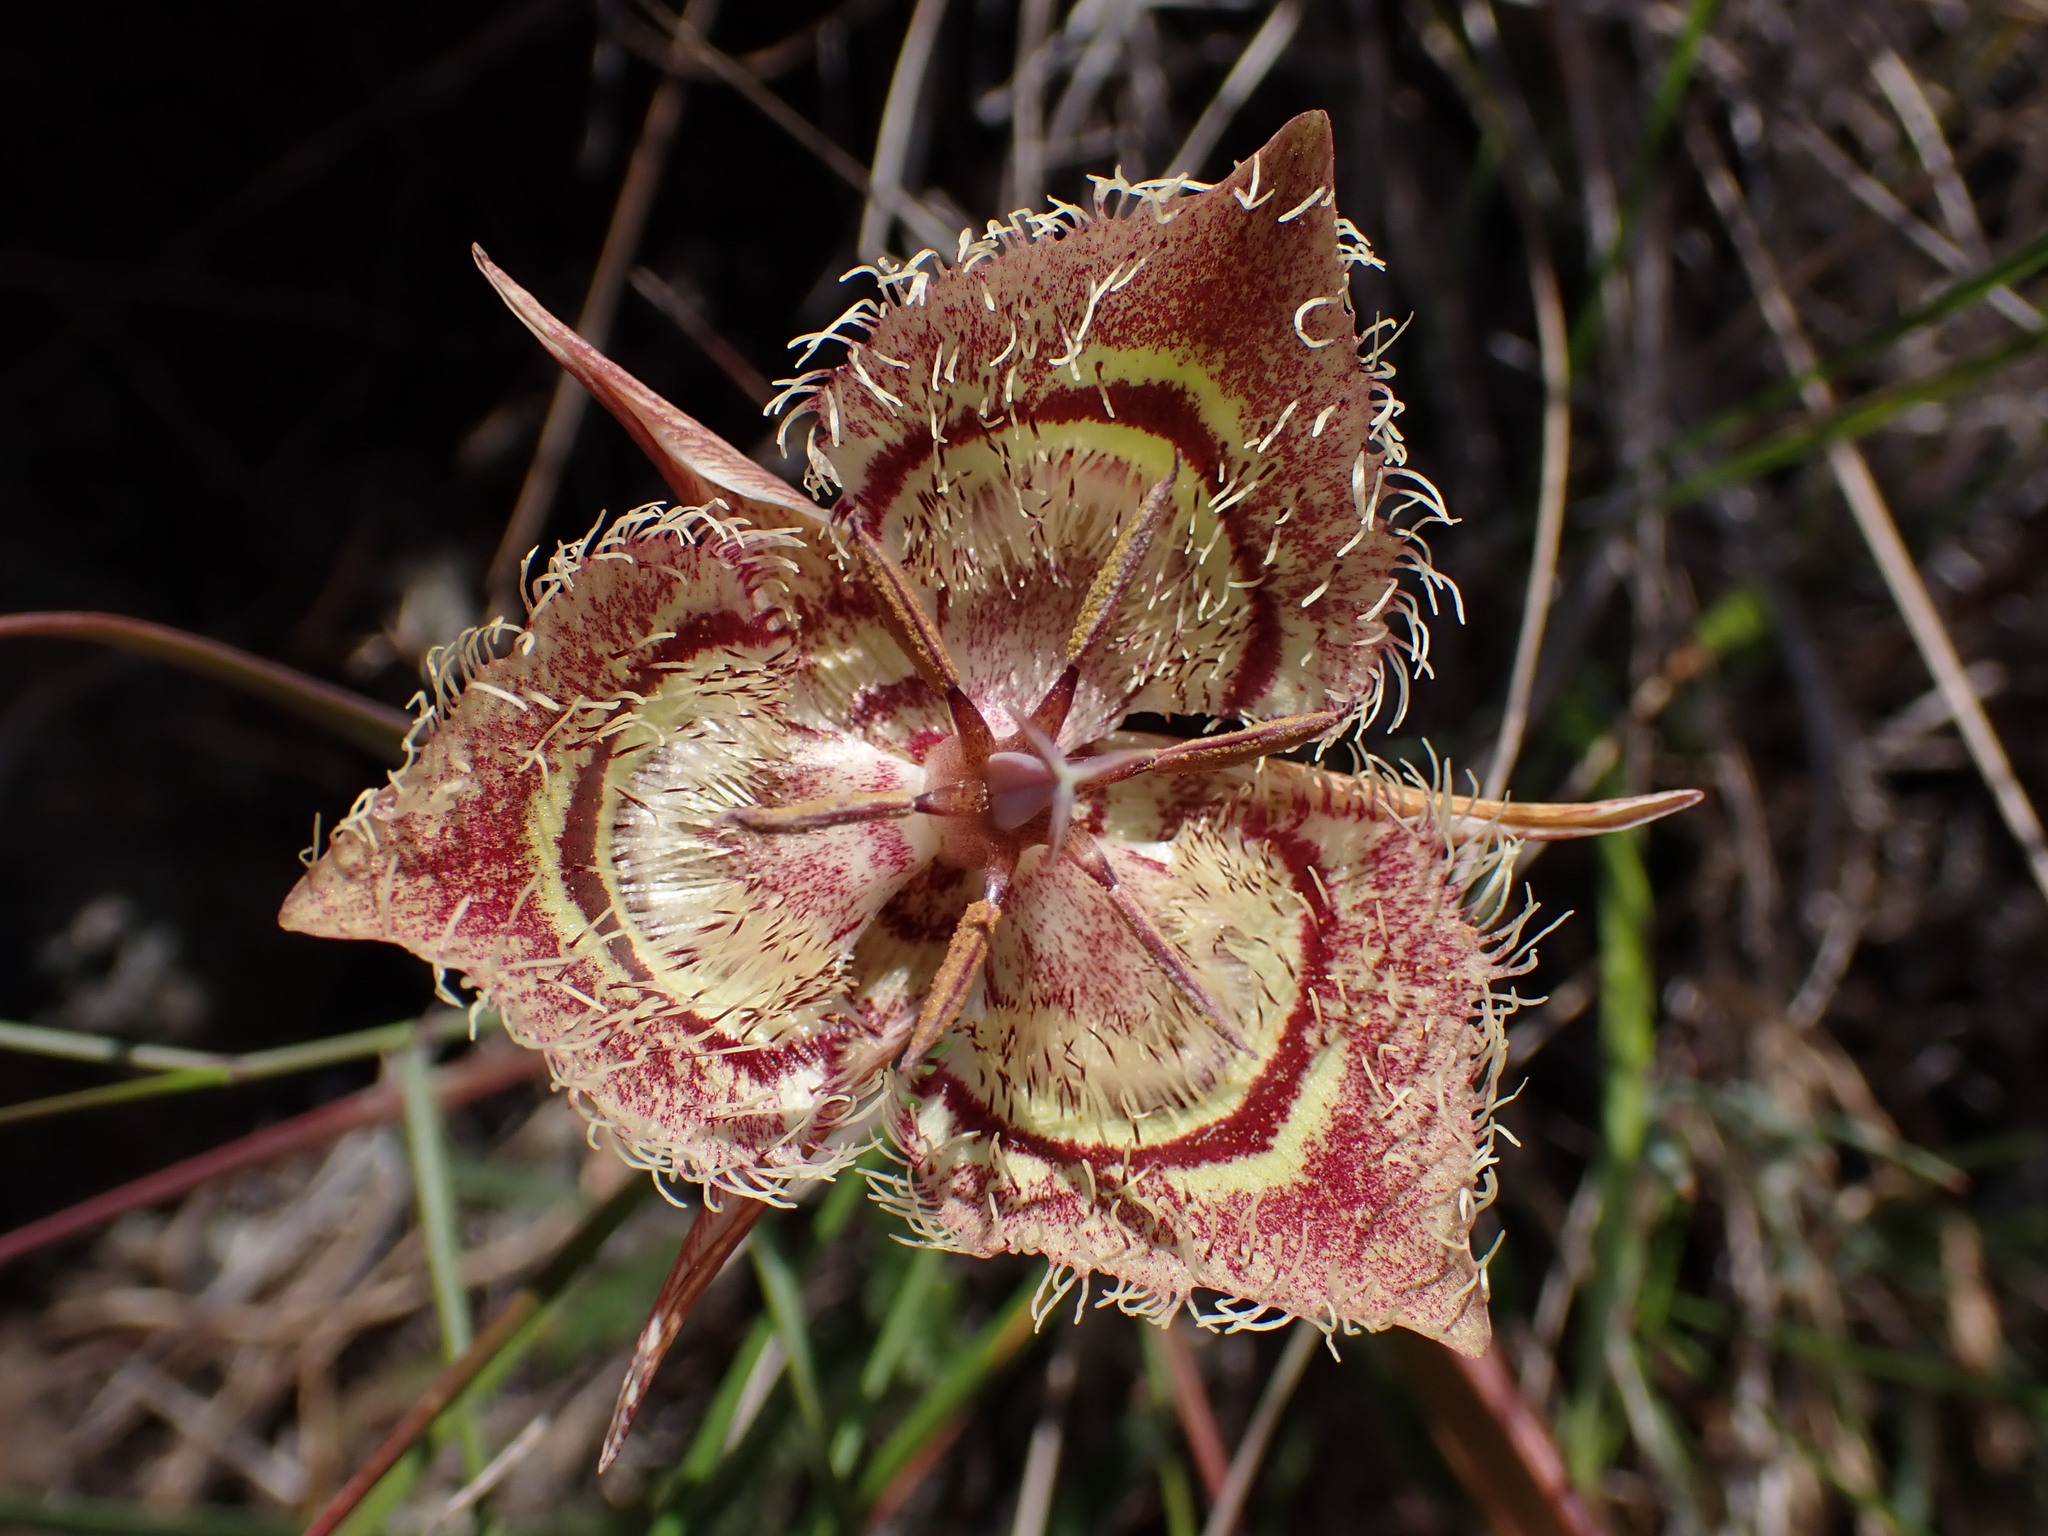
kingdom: Plantae
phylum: Tracheophyta
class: Liliopsida
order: Liliales
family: Liliaceae
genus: Calochortus
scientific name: Calochortus tiburonensis
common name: Tiburon mariposa-lily
